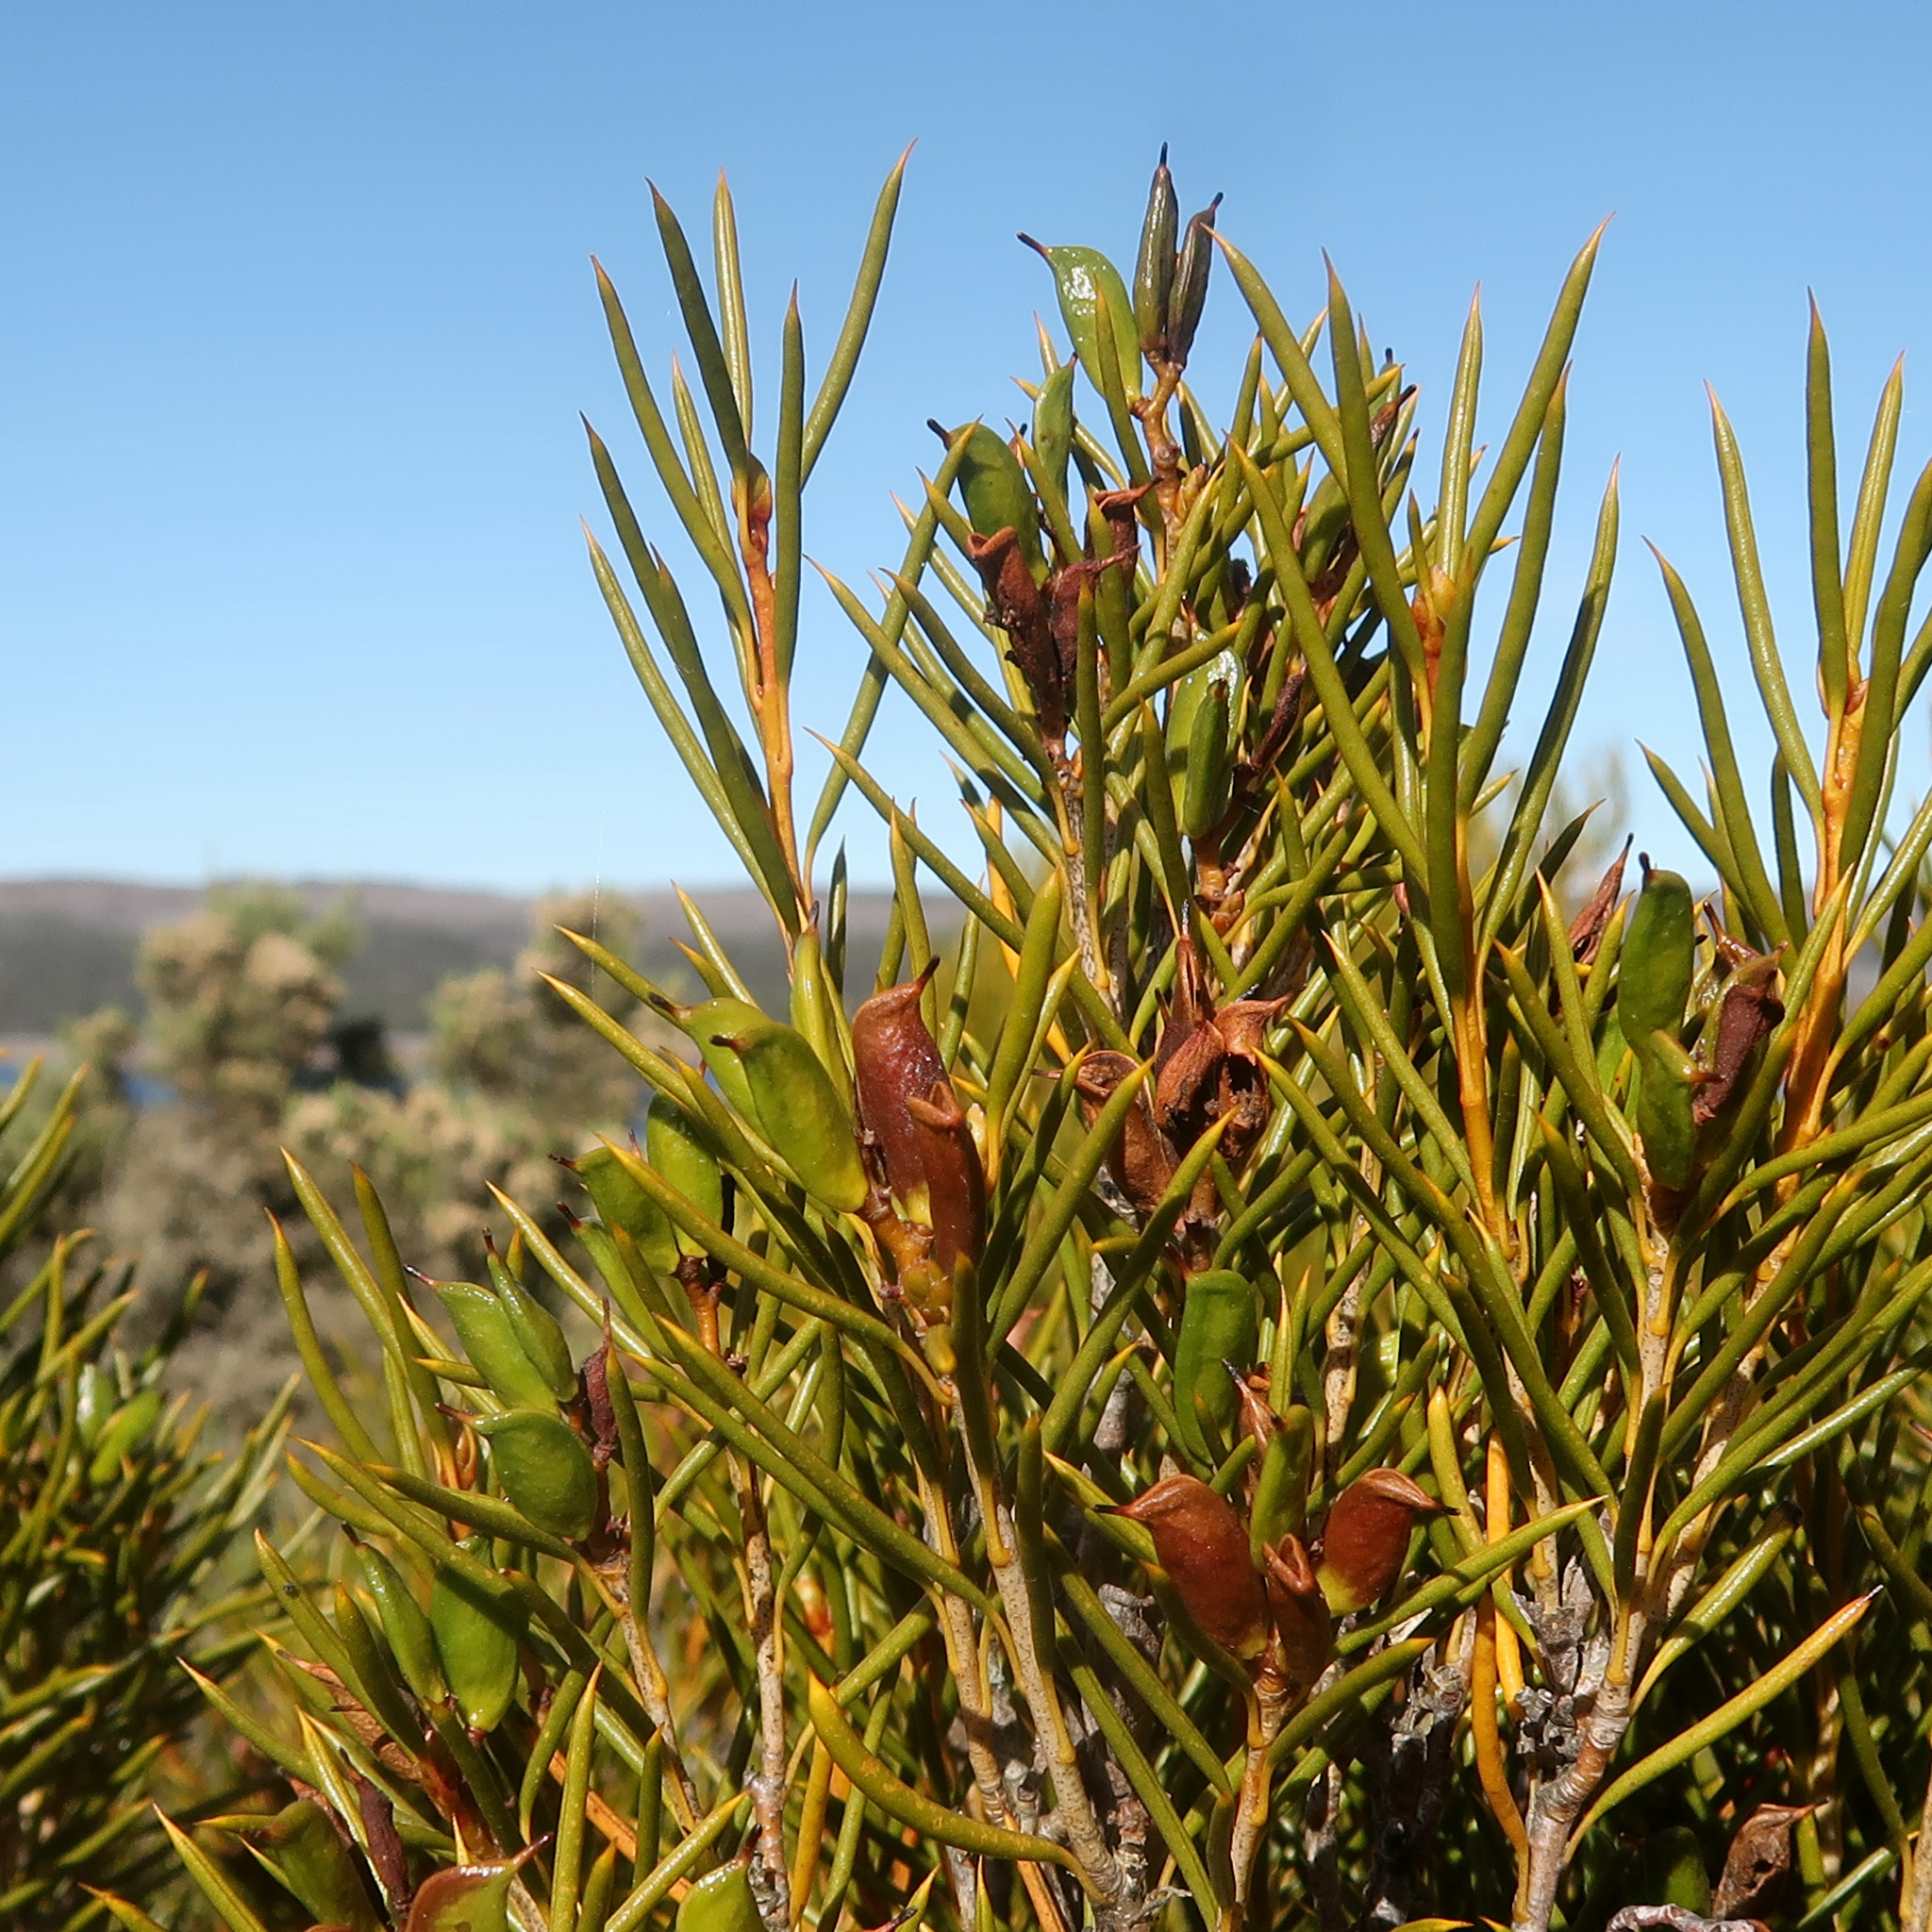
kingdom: Plantae
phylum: Tracheophyta
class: Magnoliopsida
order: Proteales
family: Proteaceae
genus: Orites
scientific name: Orites acicularis
